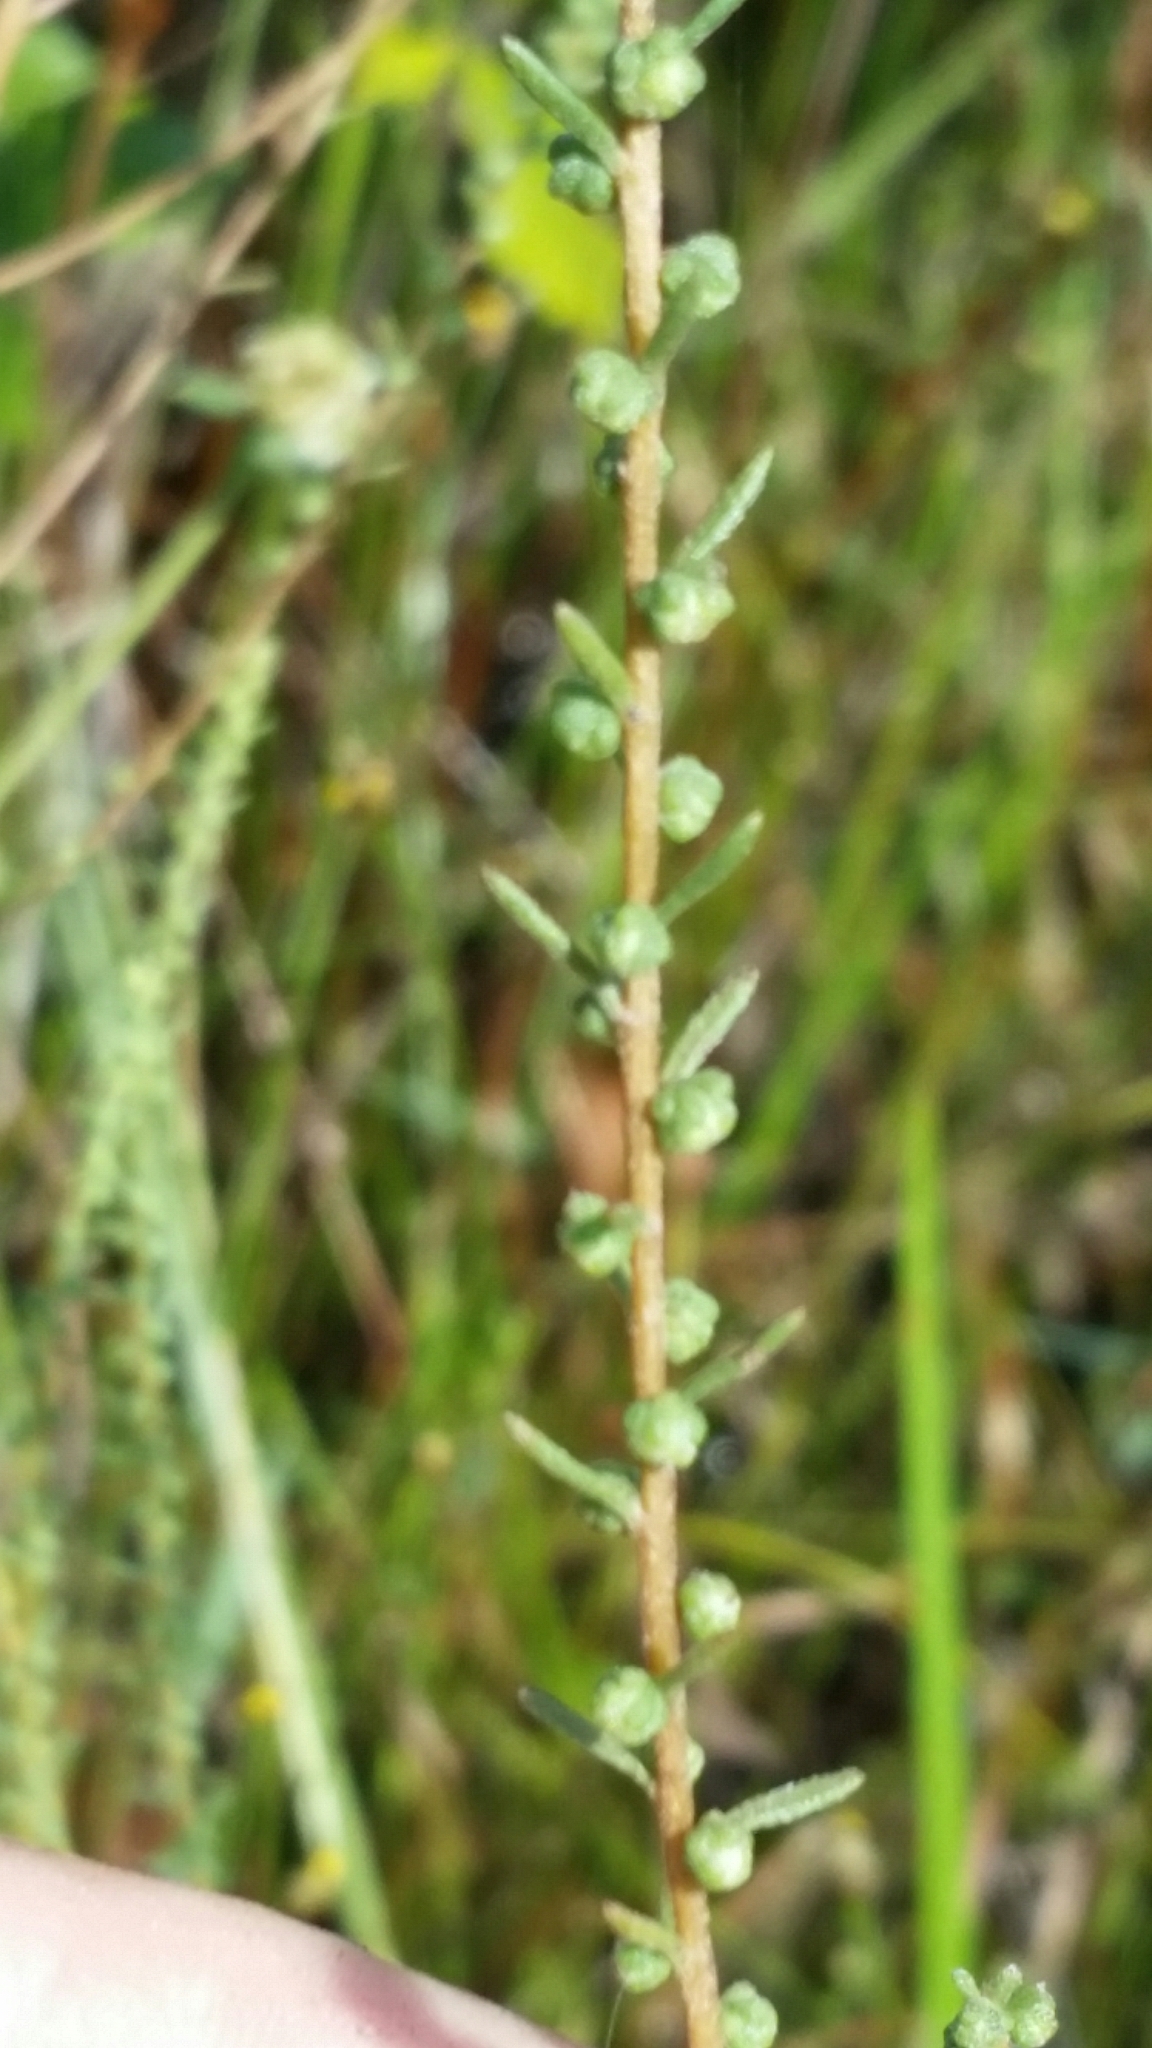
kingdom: Plantae
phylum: Tracheophyta
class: Magnoliopsida
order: Asterales
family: Asteraceae
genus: Iva
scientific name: Iva microcephala
